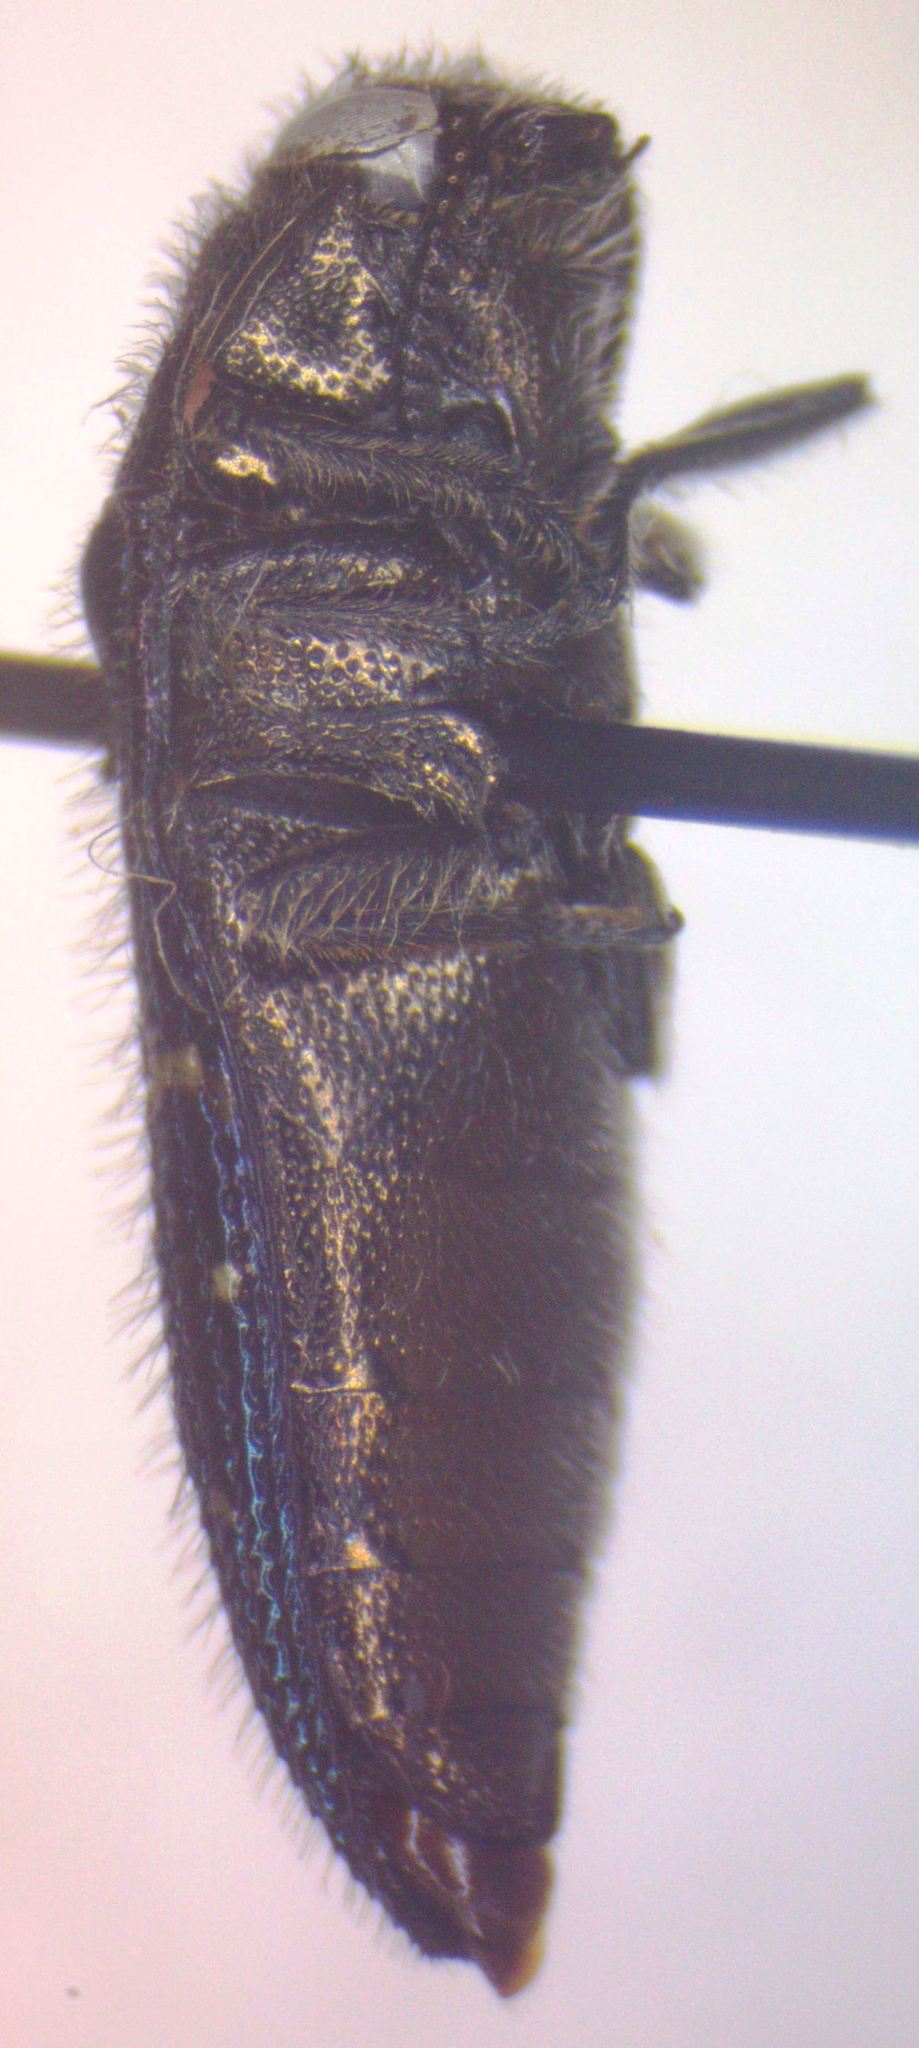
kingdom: Animalia
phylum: Arthropoda
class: Insecta
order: Coleoptera
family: Buprestidae
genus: Acmaeodera
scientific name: Acmaeodera impluviata
